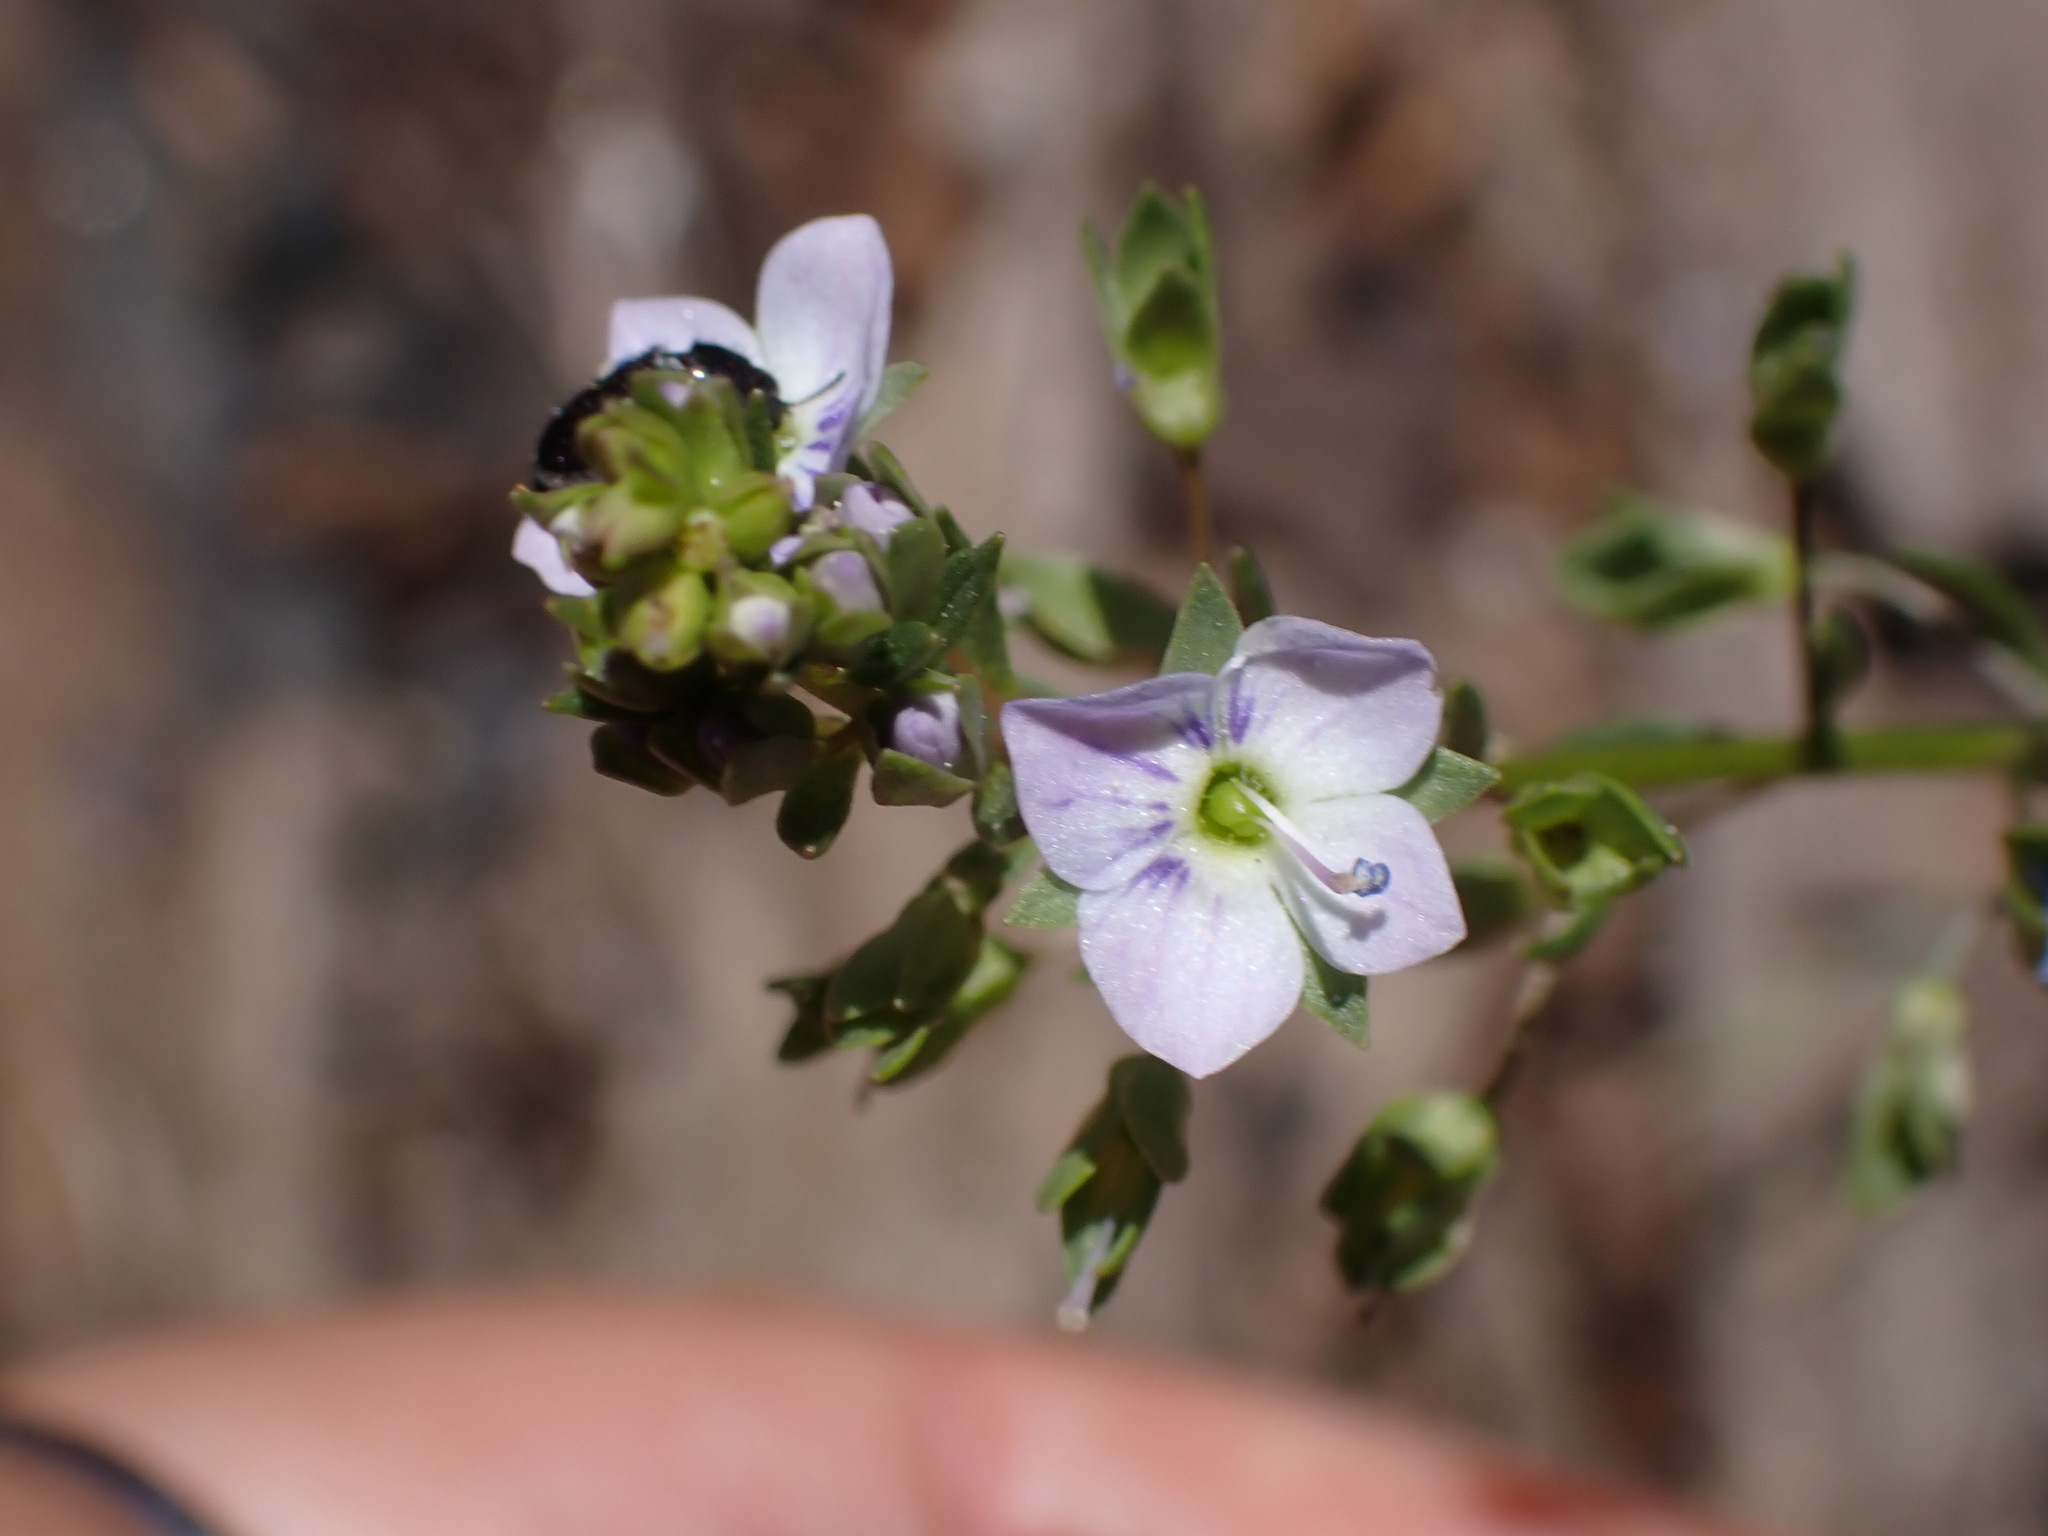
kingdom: Plantae
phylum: Tracheophyta
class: Magnoliopsida
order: Lamiales
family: Plantaginaceae
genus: Veronica
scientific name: Veronica anagallis-aquatica
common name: Water speedwell
